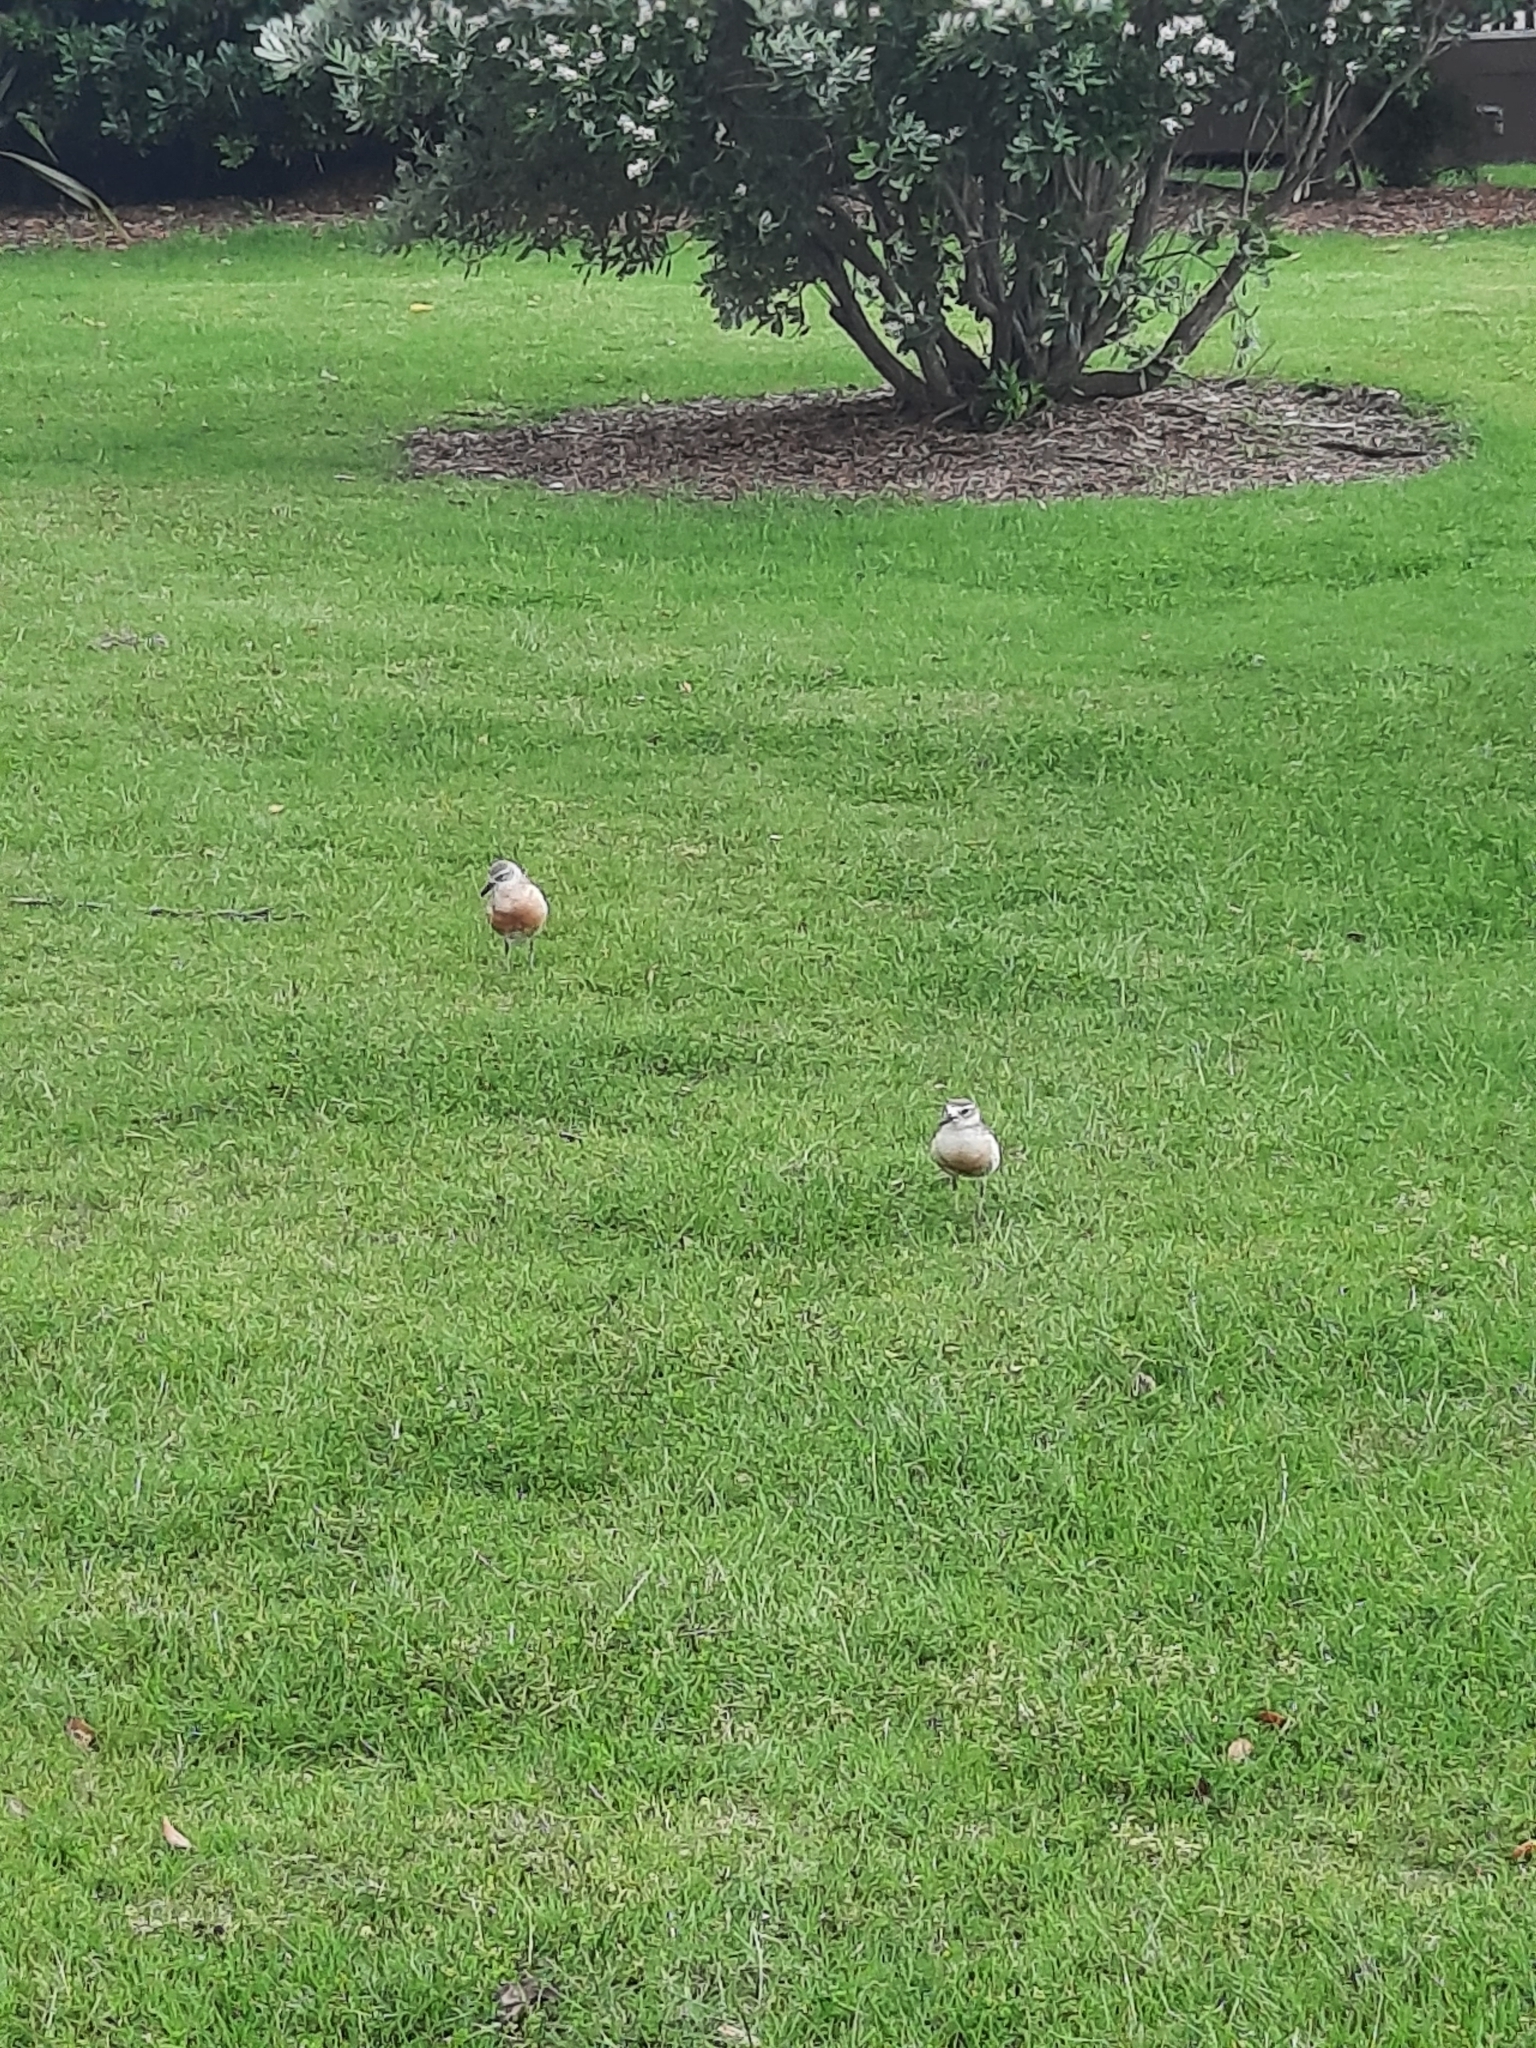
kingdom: Animalia
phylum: Chordata
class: Aves
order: Charadriiformes
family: Charadriidae
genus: Anarhynchus
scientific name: Anarhynchus
